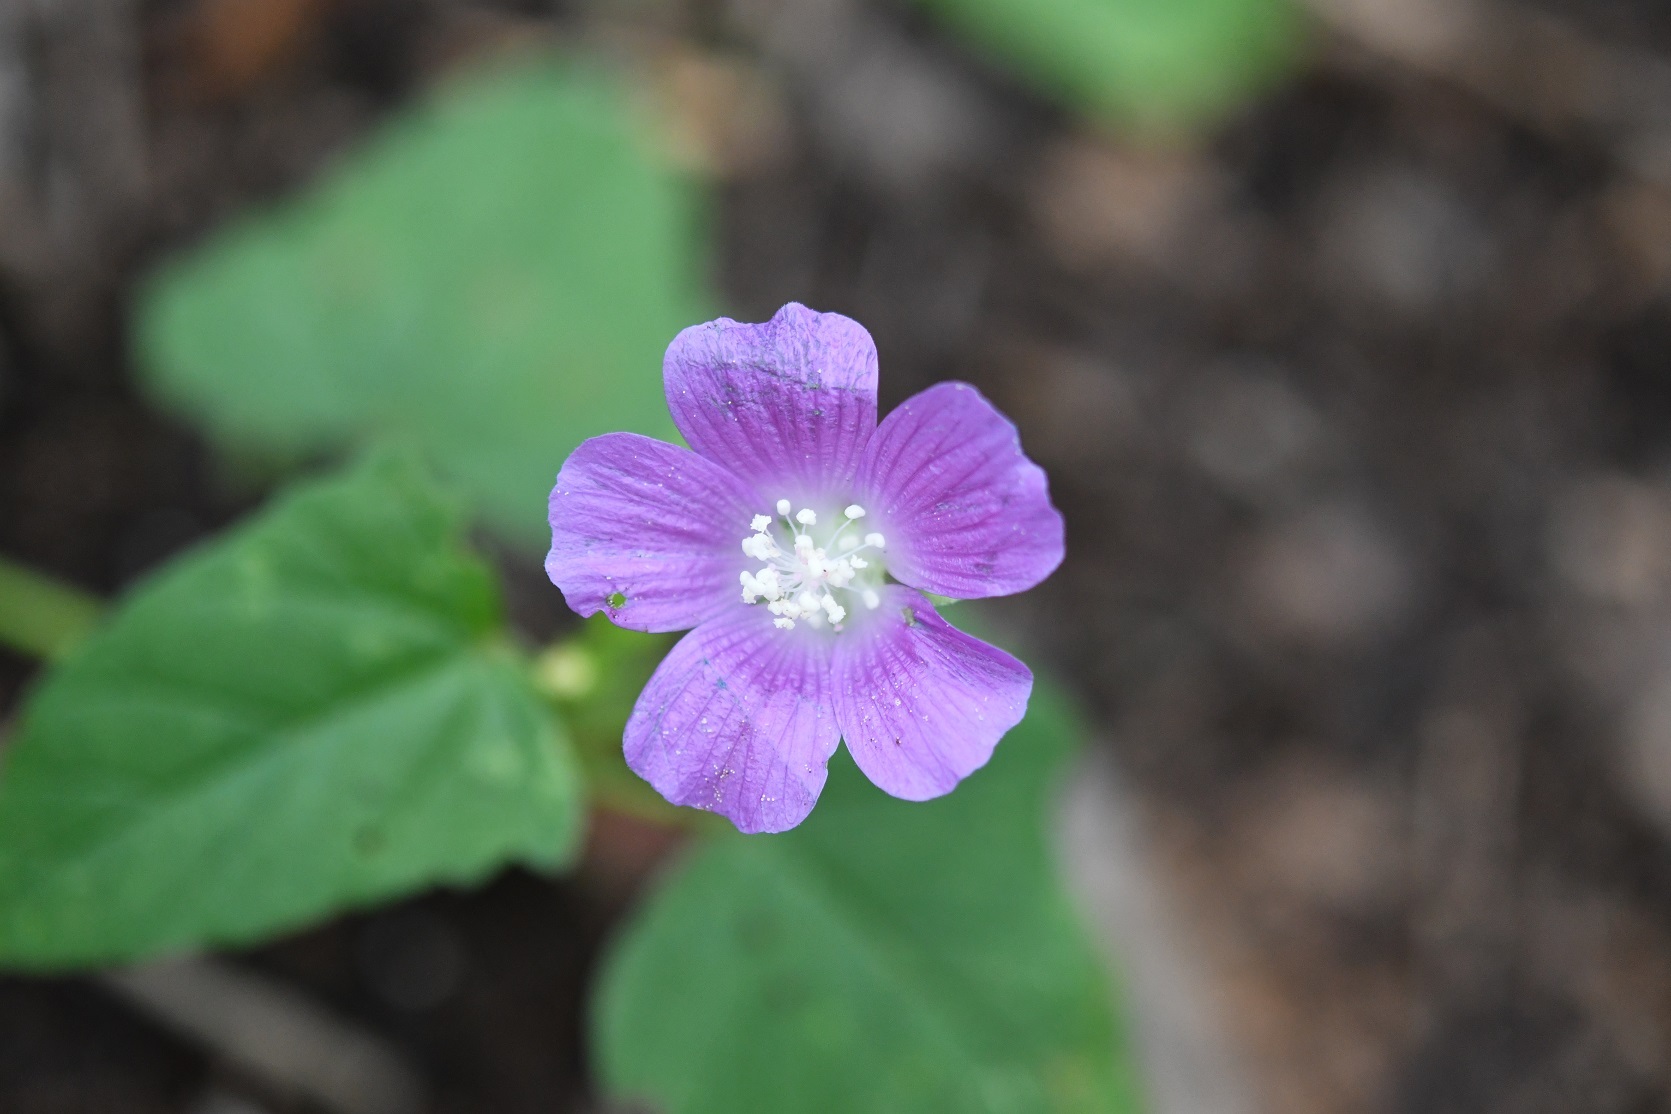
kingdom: Plantae
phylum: Tracheophyta
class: Magnoliopsida
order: Malvales
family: Malvaceae
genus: Anoda
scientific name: Anoda cristata
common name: Spurred anoda
